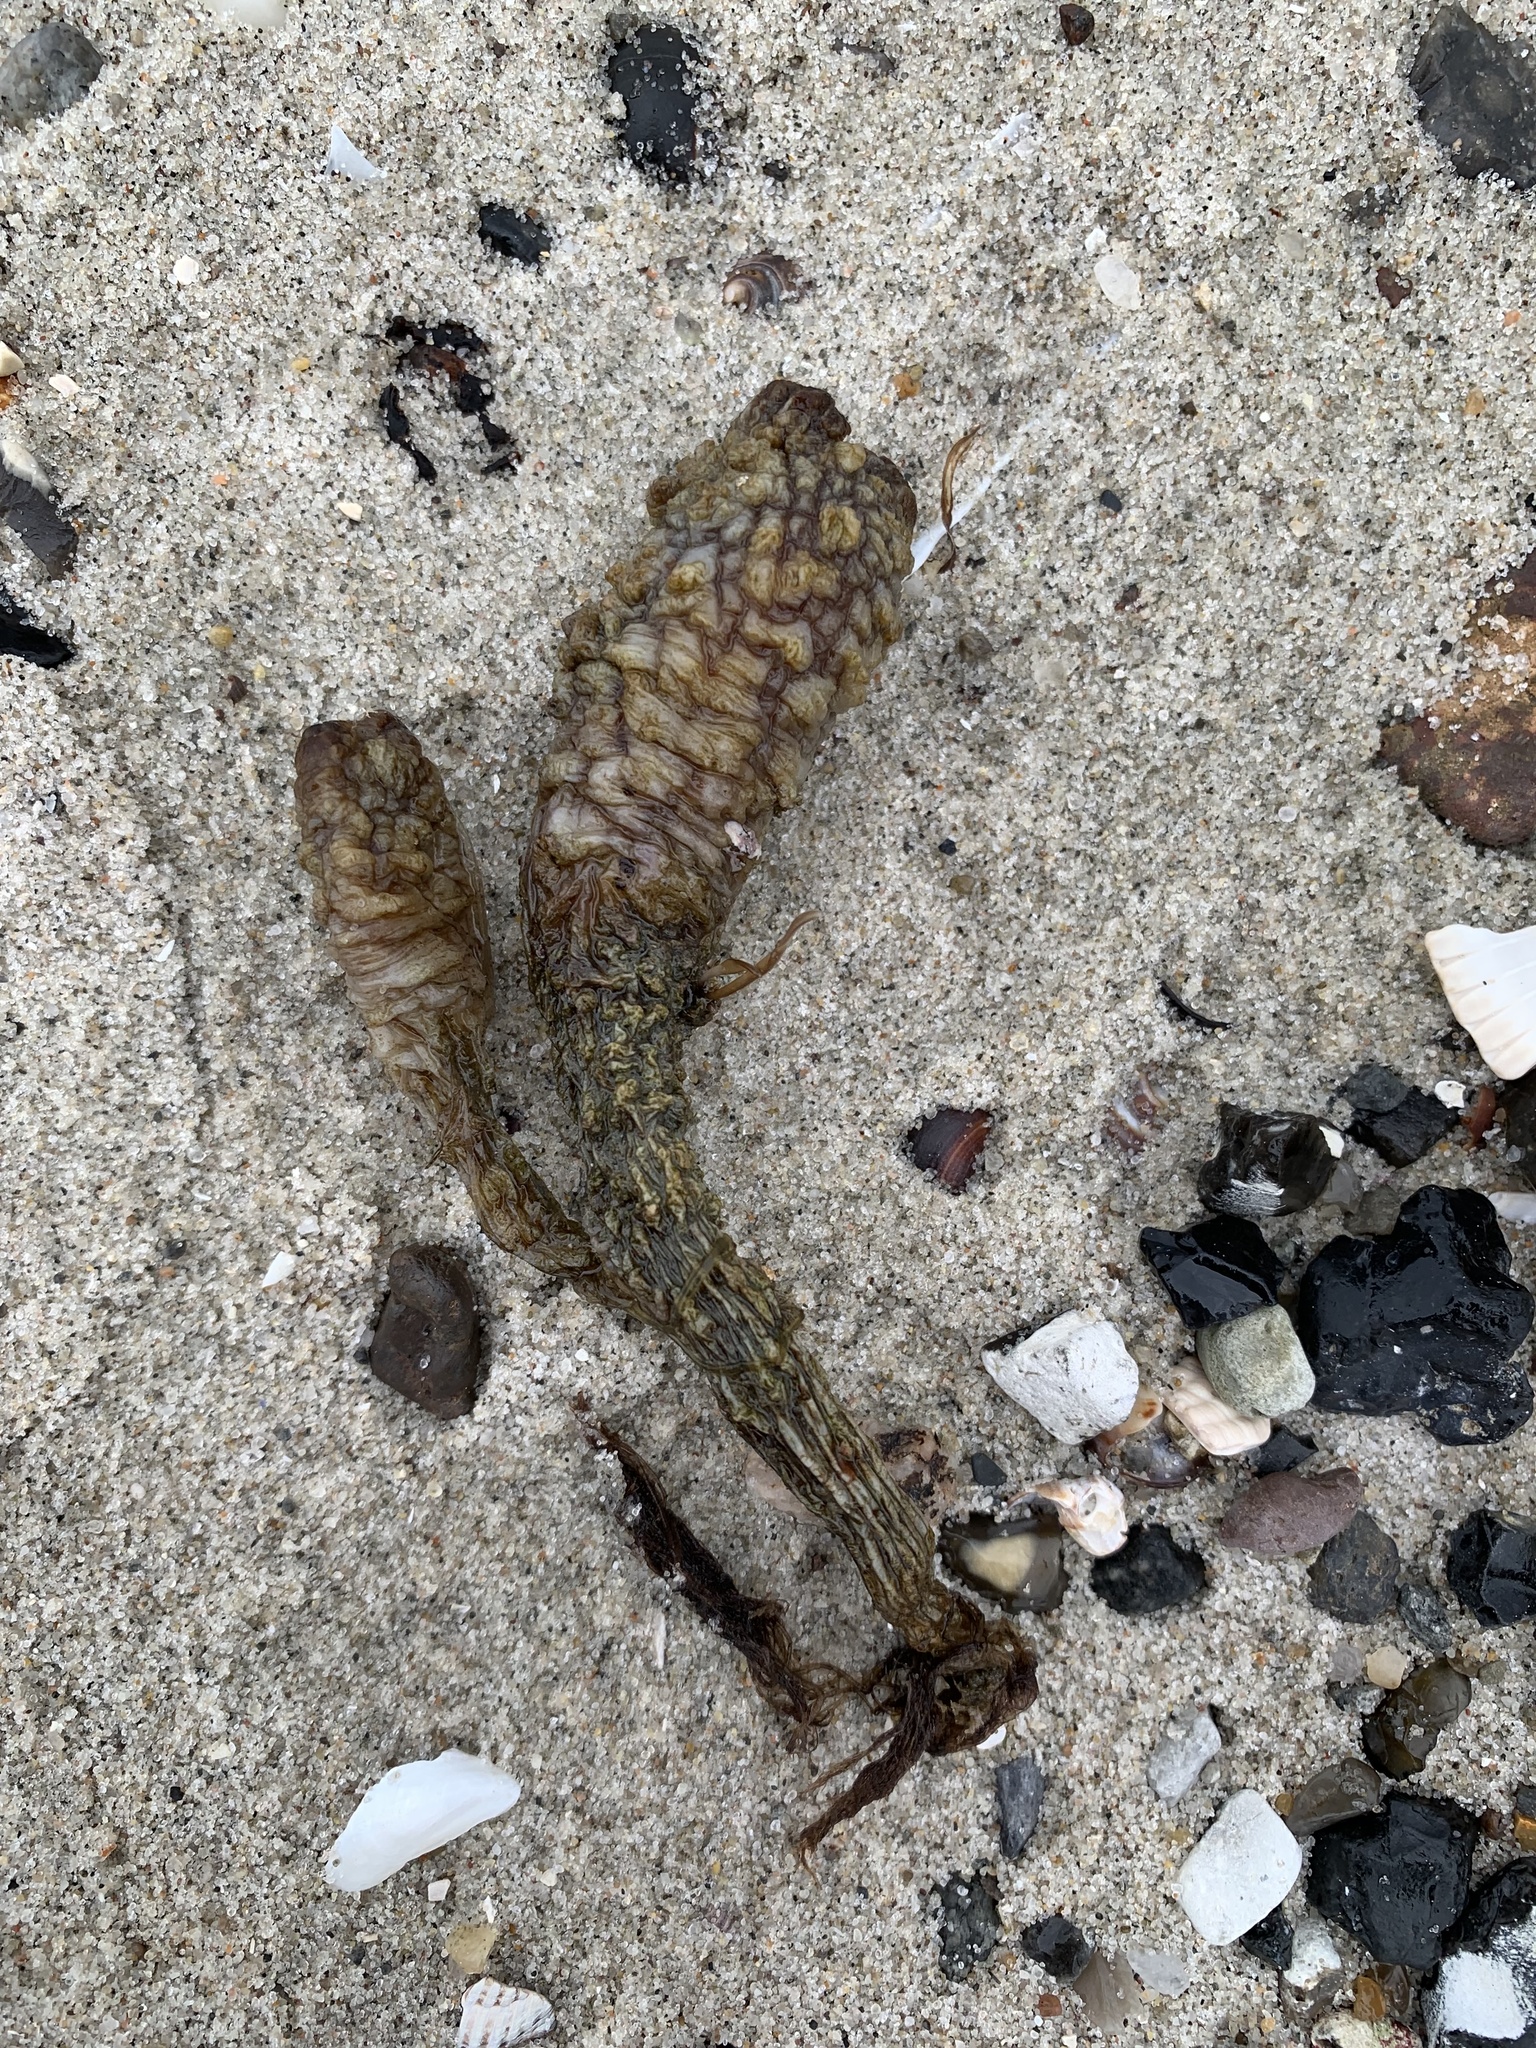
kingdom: Animalia
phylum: Chordata
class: Ascidiacea
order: Stolidobranchia
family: Styelidae
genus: Styela
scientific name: Styela clava
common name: Leathery sea squirt
